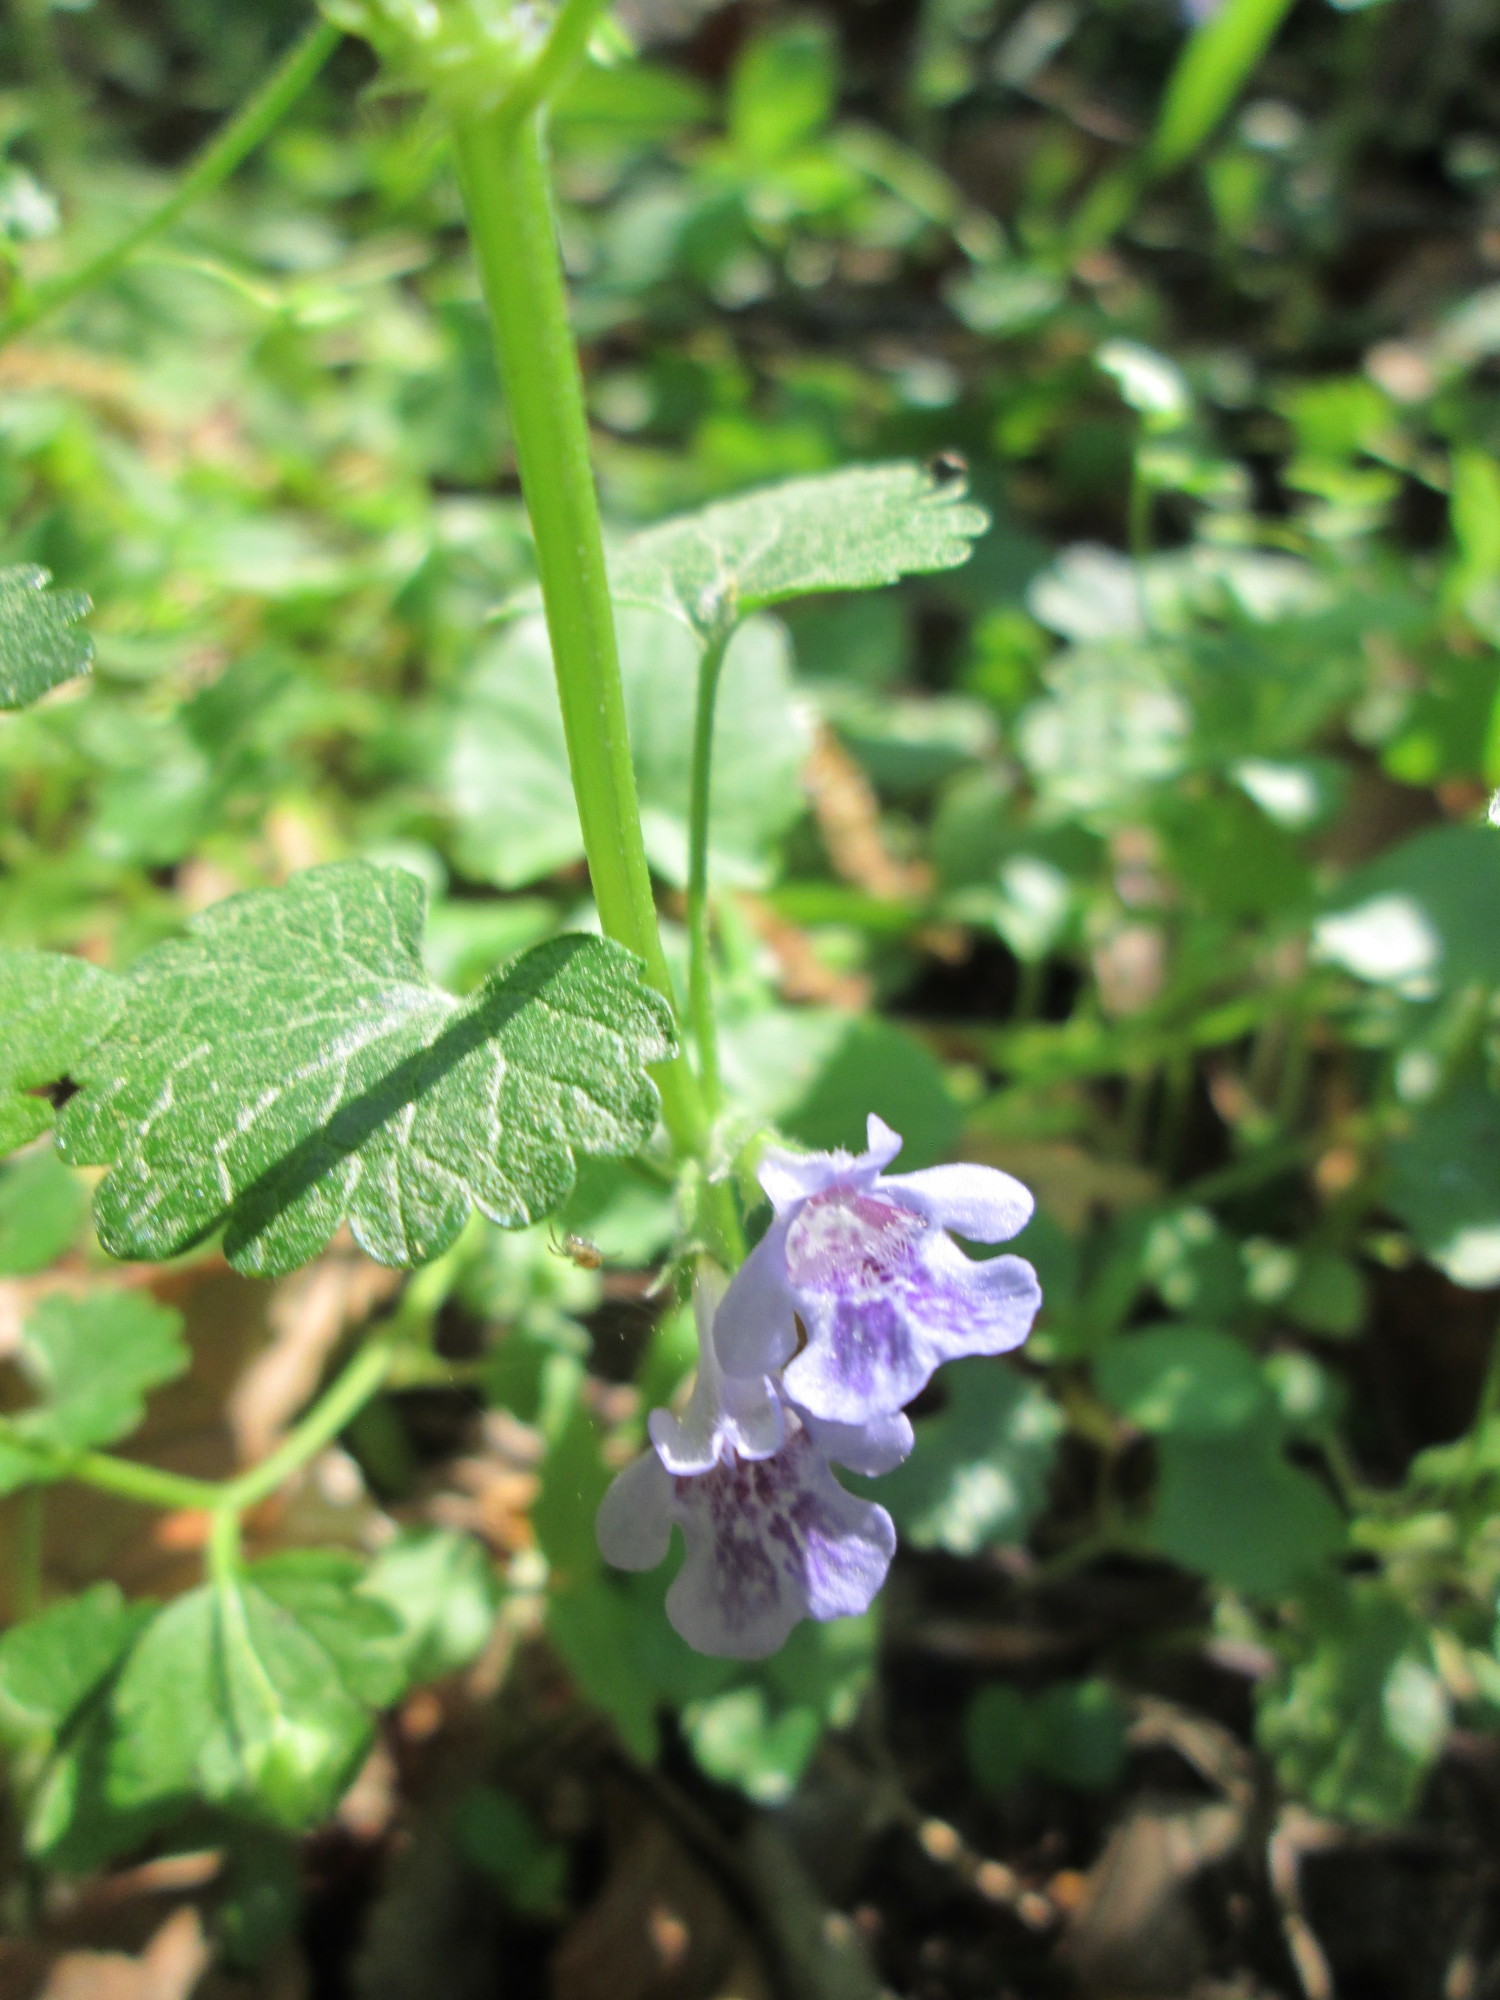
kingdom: Plantae
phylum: Tracheophyta
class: Magnoliopsida
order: Lamiales
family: Lamiaceae
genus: Glechoma
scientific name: Glechoma hederacea
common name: Ground ivy
